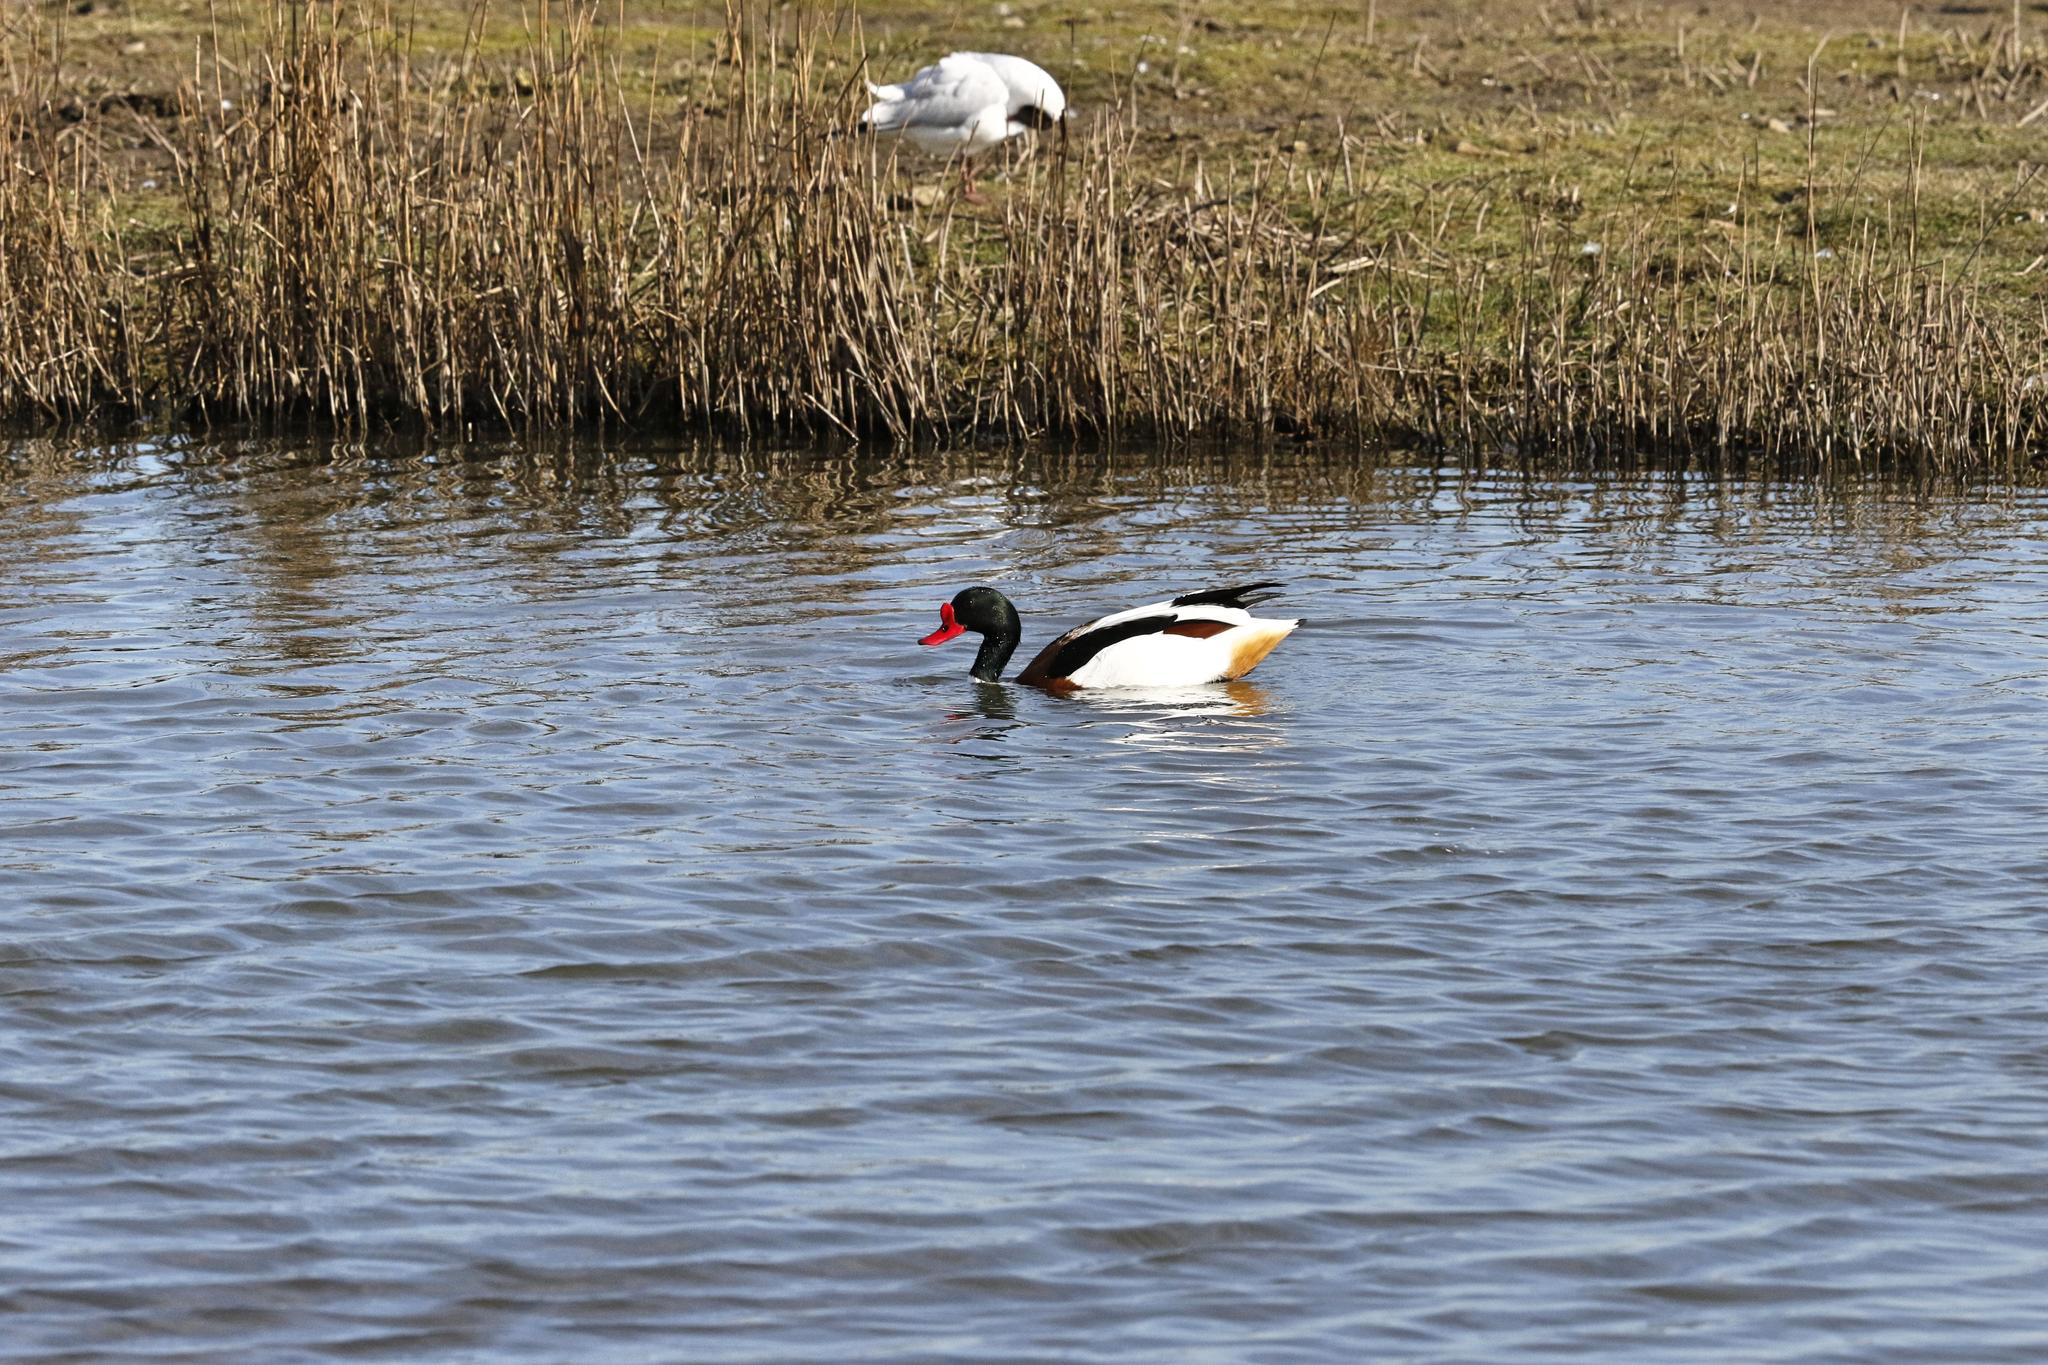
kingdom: Animalia
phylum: Chordata
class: Aves
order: Anseriformes
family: Anatidae
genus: Tadorna
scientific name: Tadorna tadorna
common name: Common shelduck
